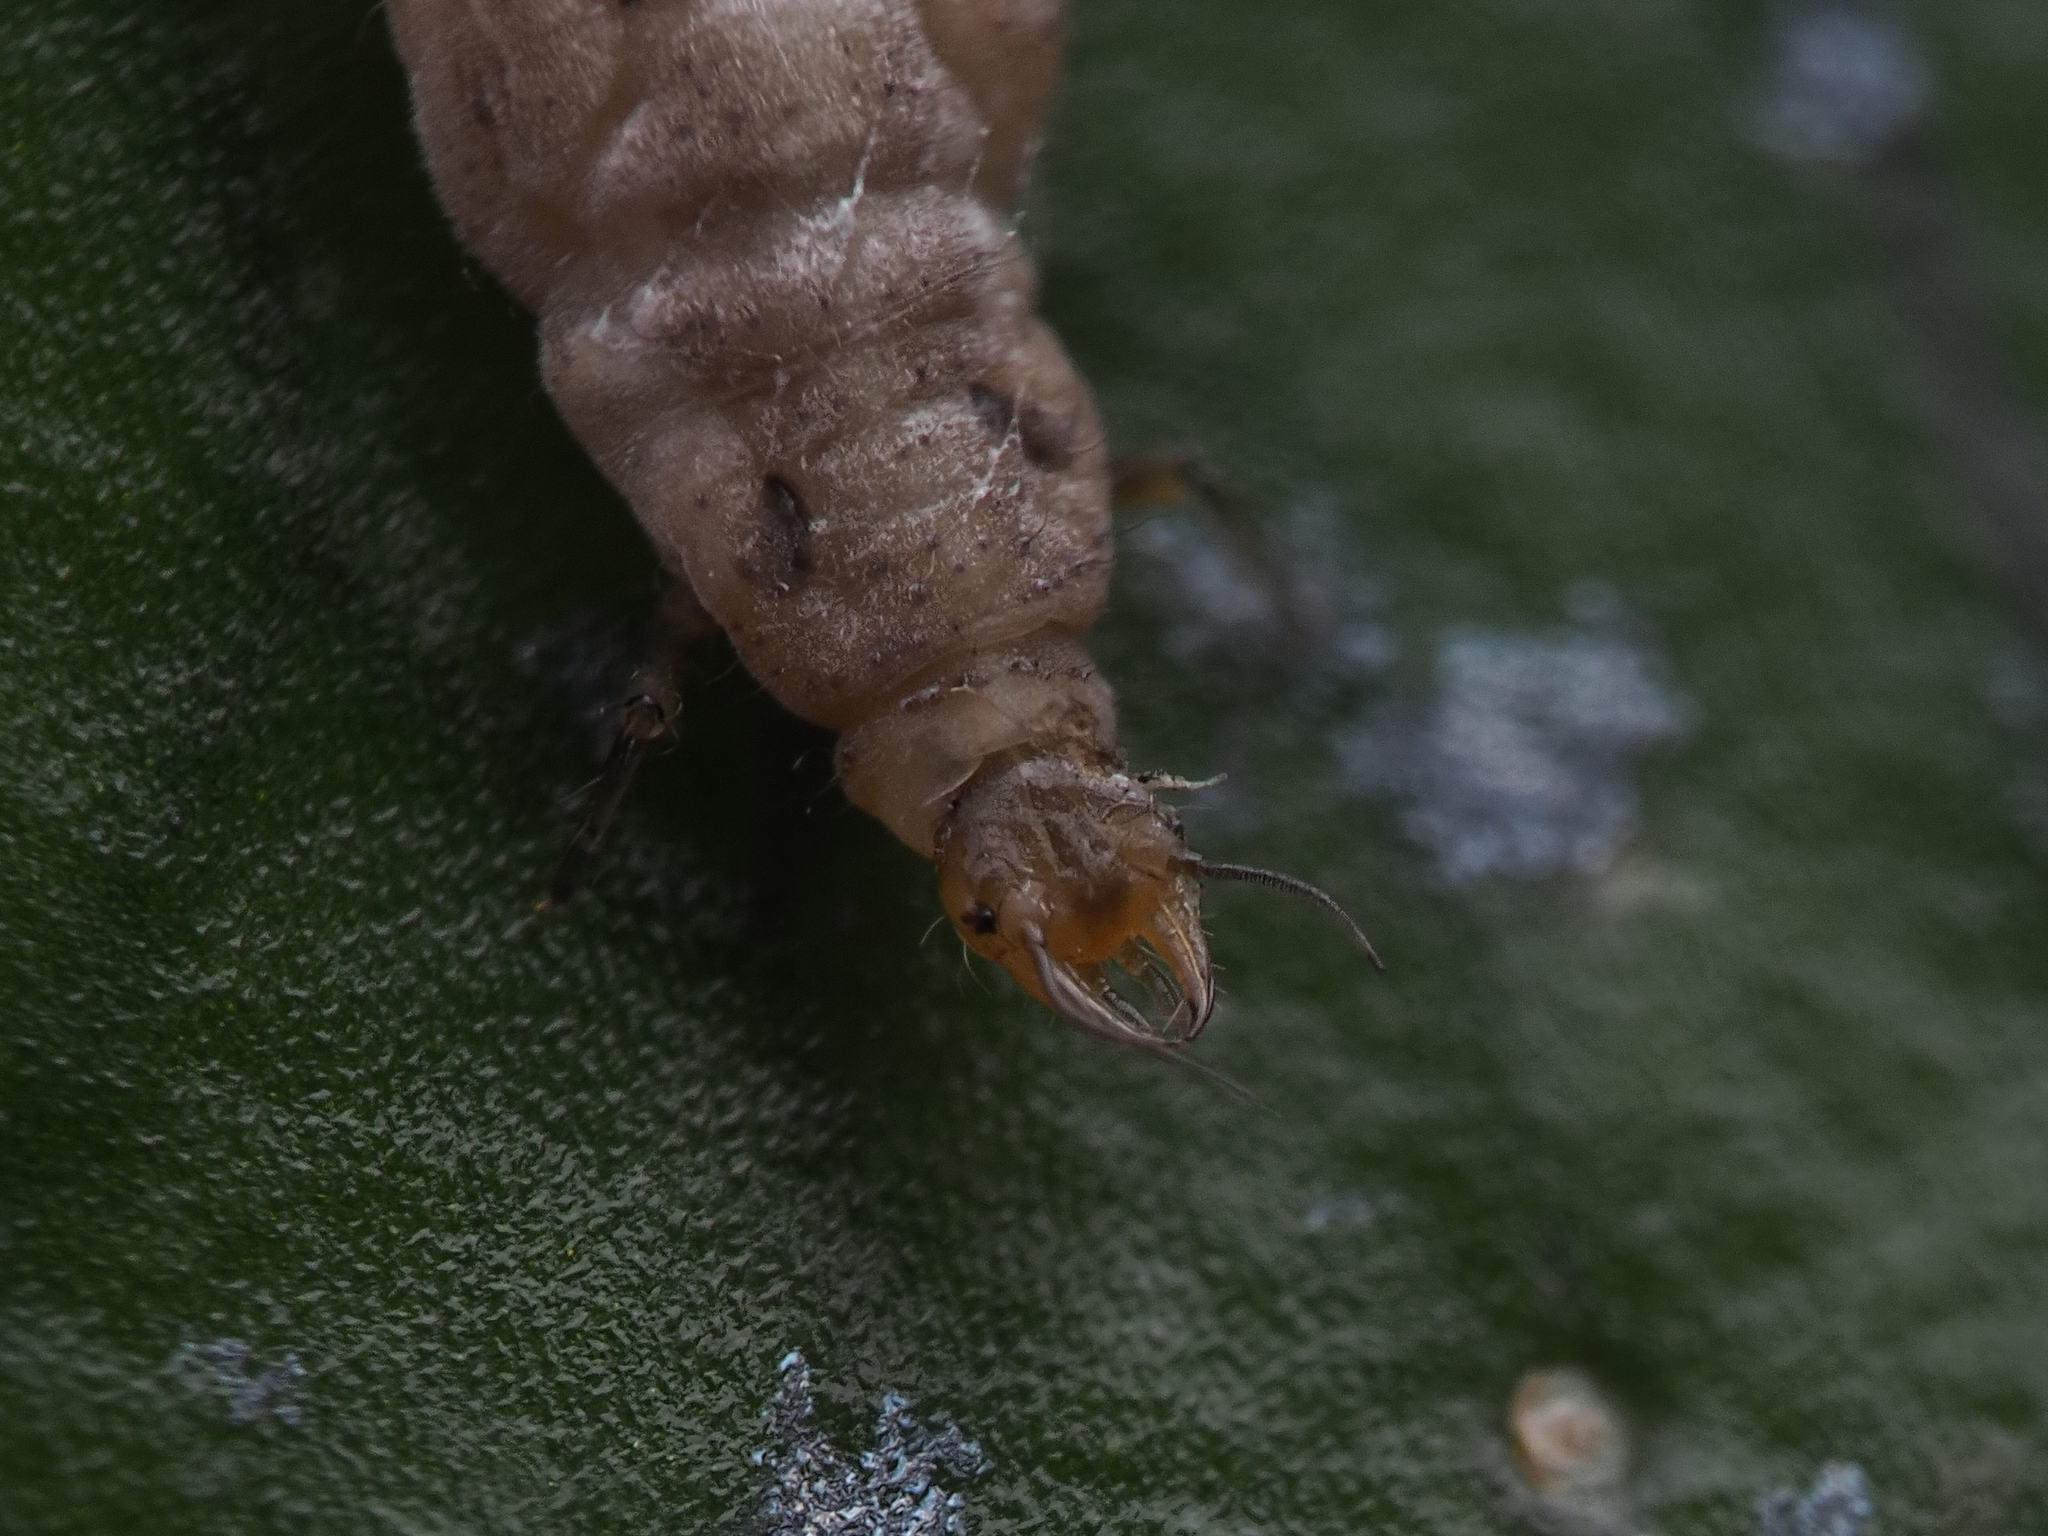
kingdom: Animalia
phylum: Arthropoda
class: Insecta
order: Neuroptera
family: Hemerobiidae
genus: Drepanacra
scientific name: Drepanacra binocula
